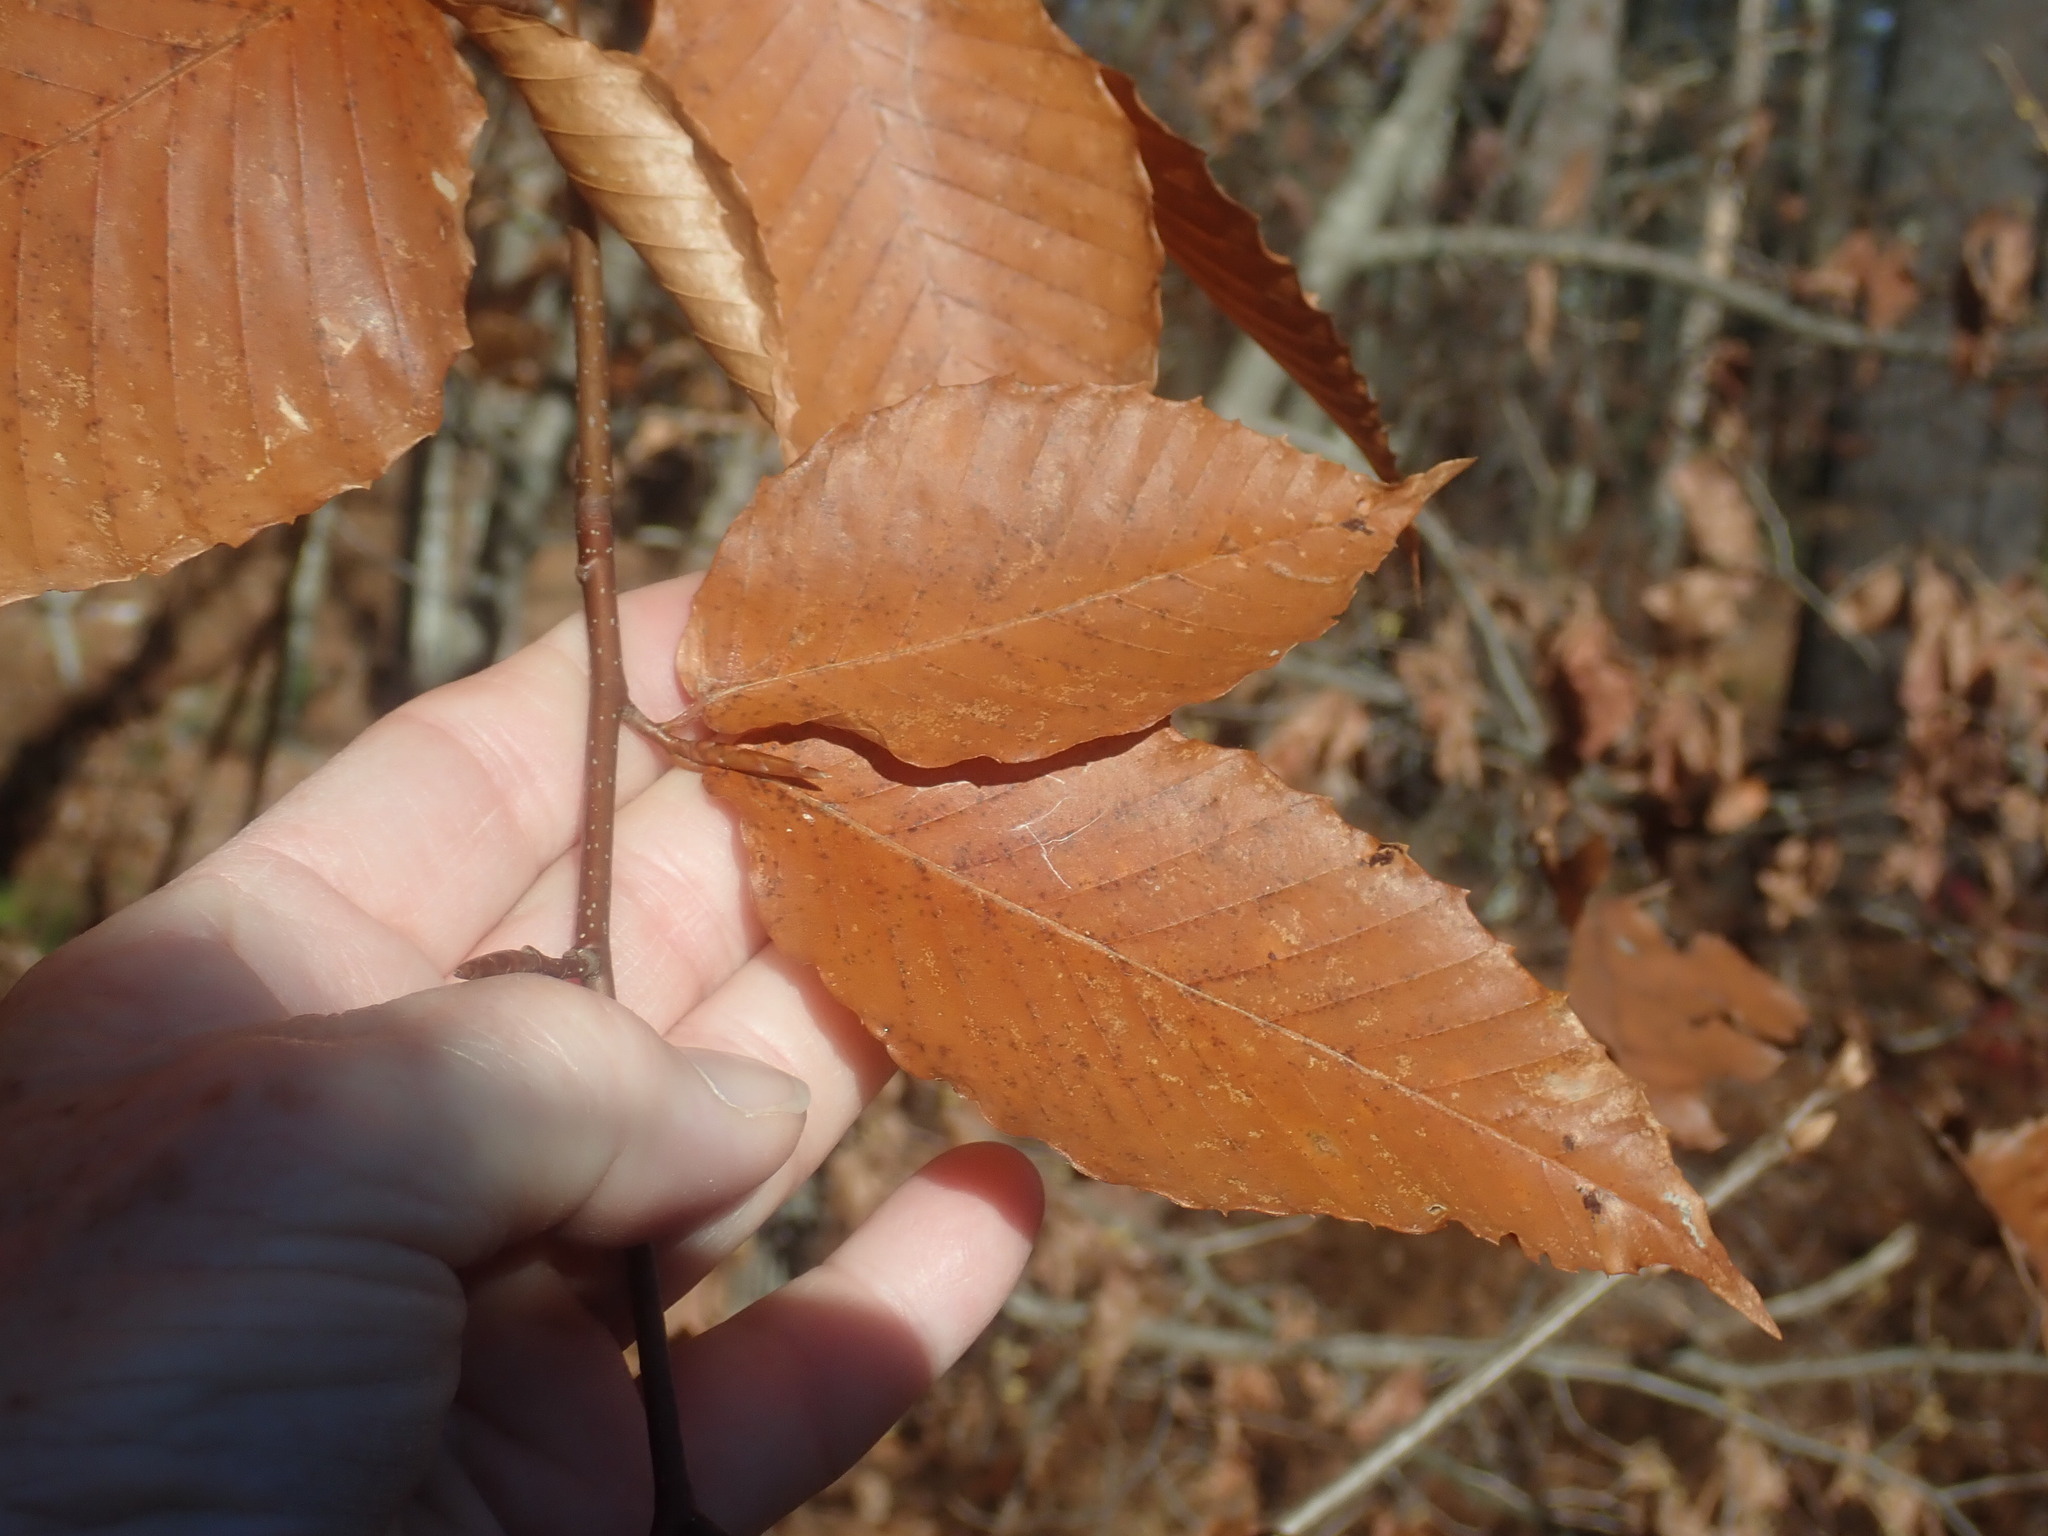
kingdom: Plantae
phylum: Tracheophyta
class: Magnoliopsida
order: Fagales
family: Fagaceae
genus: Fagus
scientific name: Fagus grandifolia
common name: American beech
